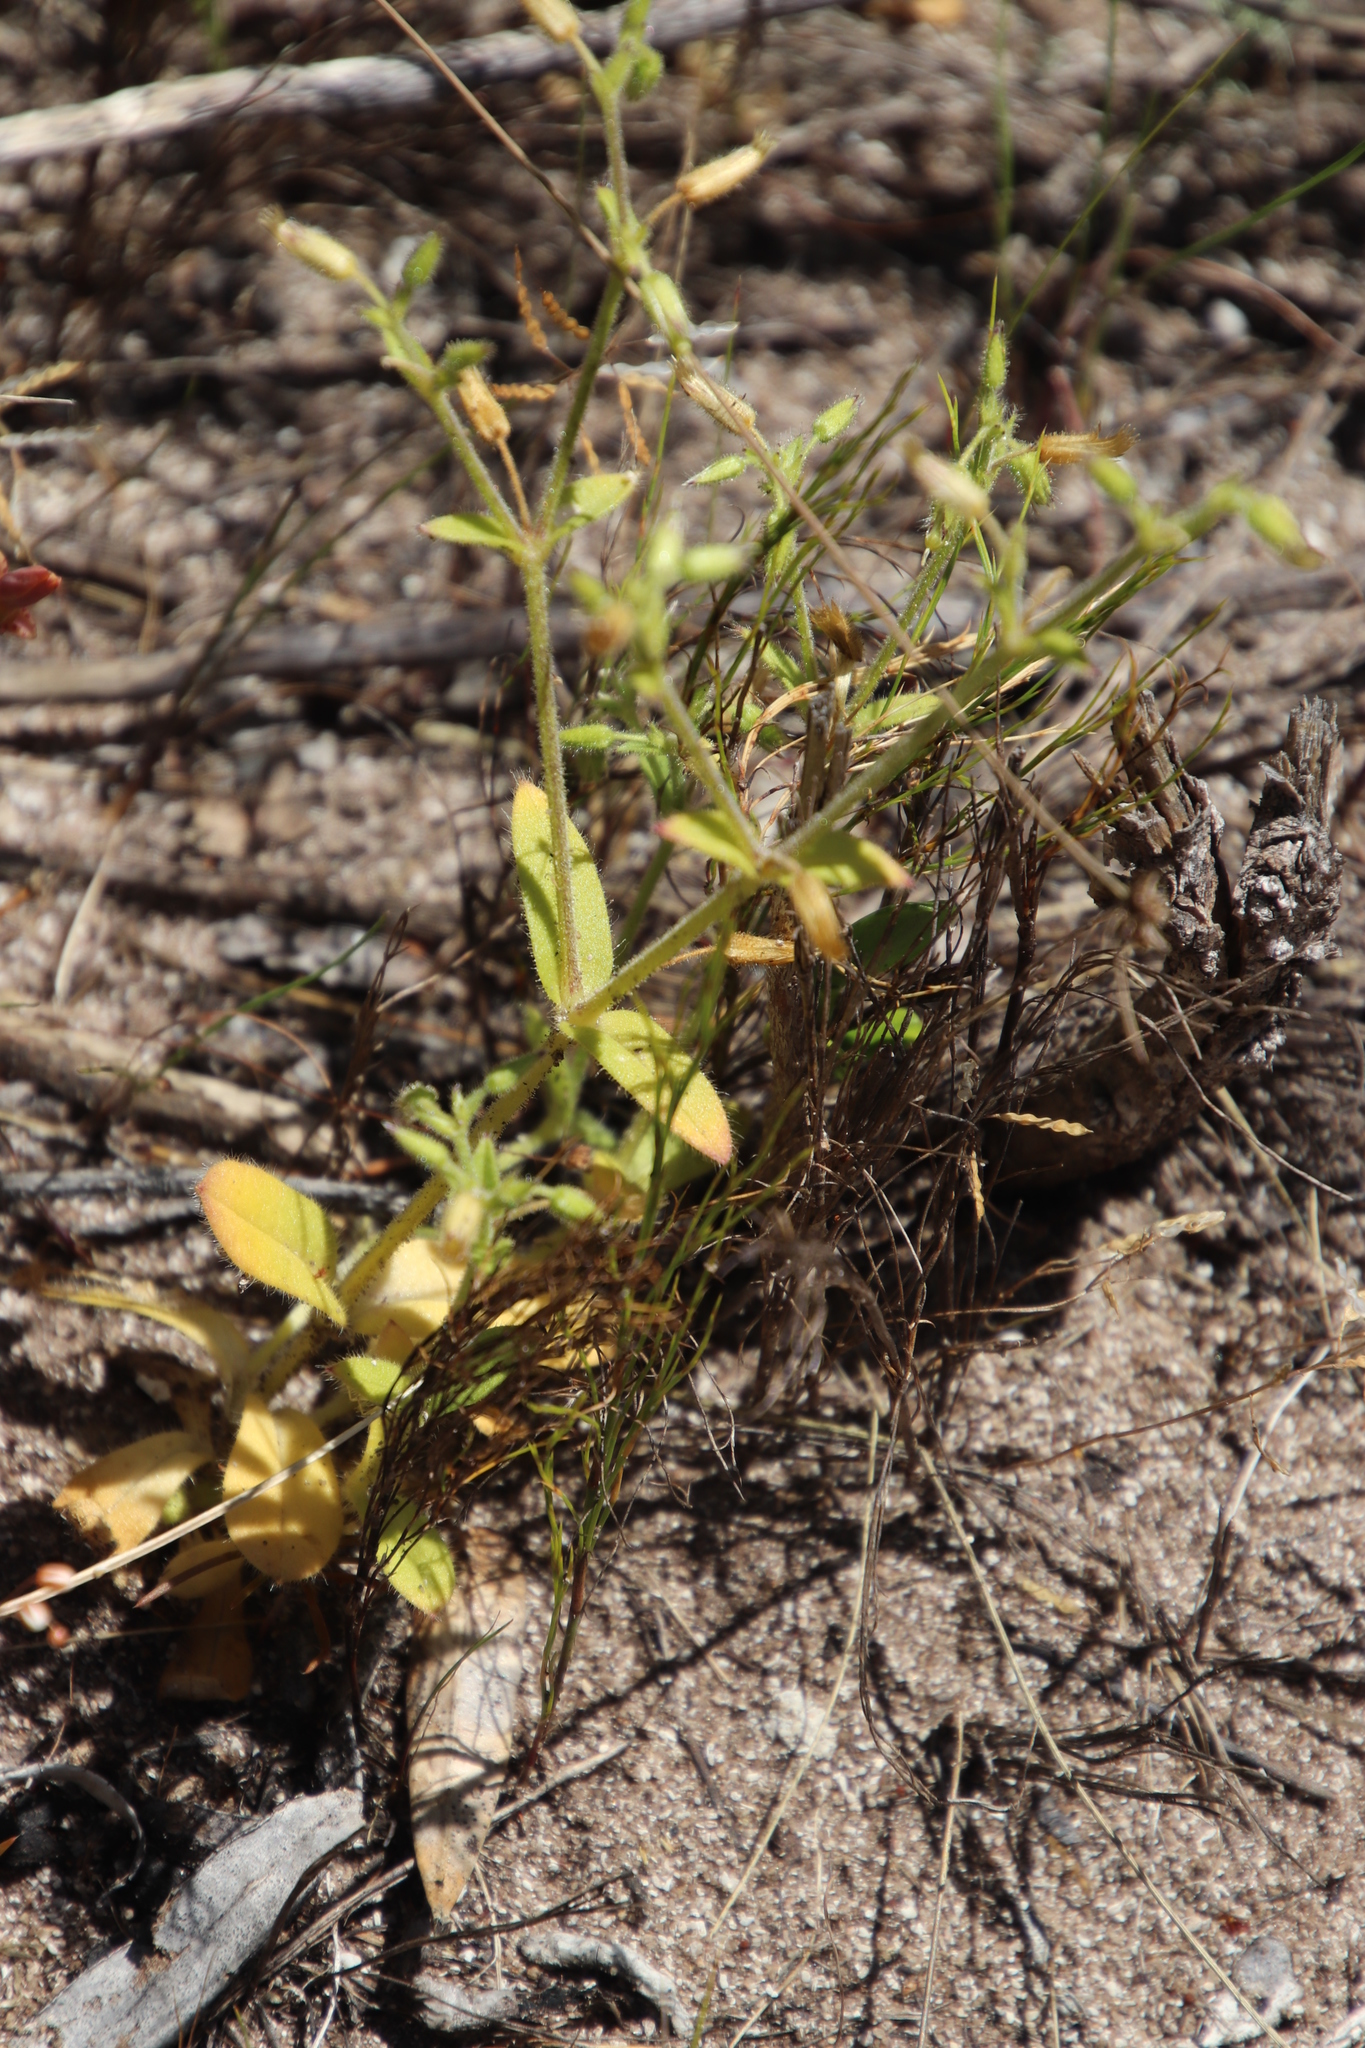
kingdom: Plantae
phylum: Tracheophyta
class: Magnoliopsida
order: Caryophyllales
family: Caryophyllaceae
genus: Cerastium
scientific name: Cerastium capense
